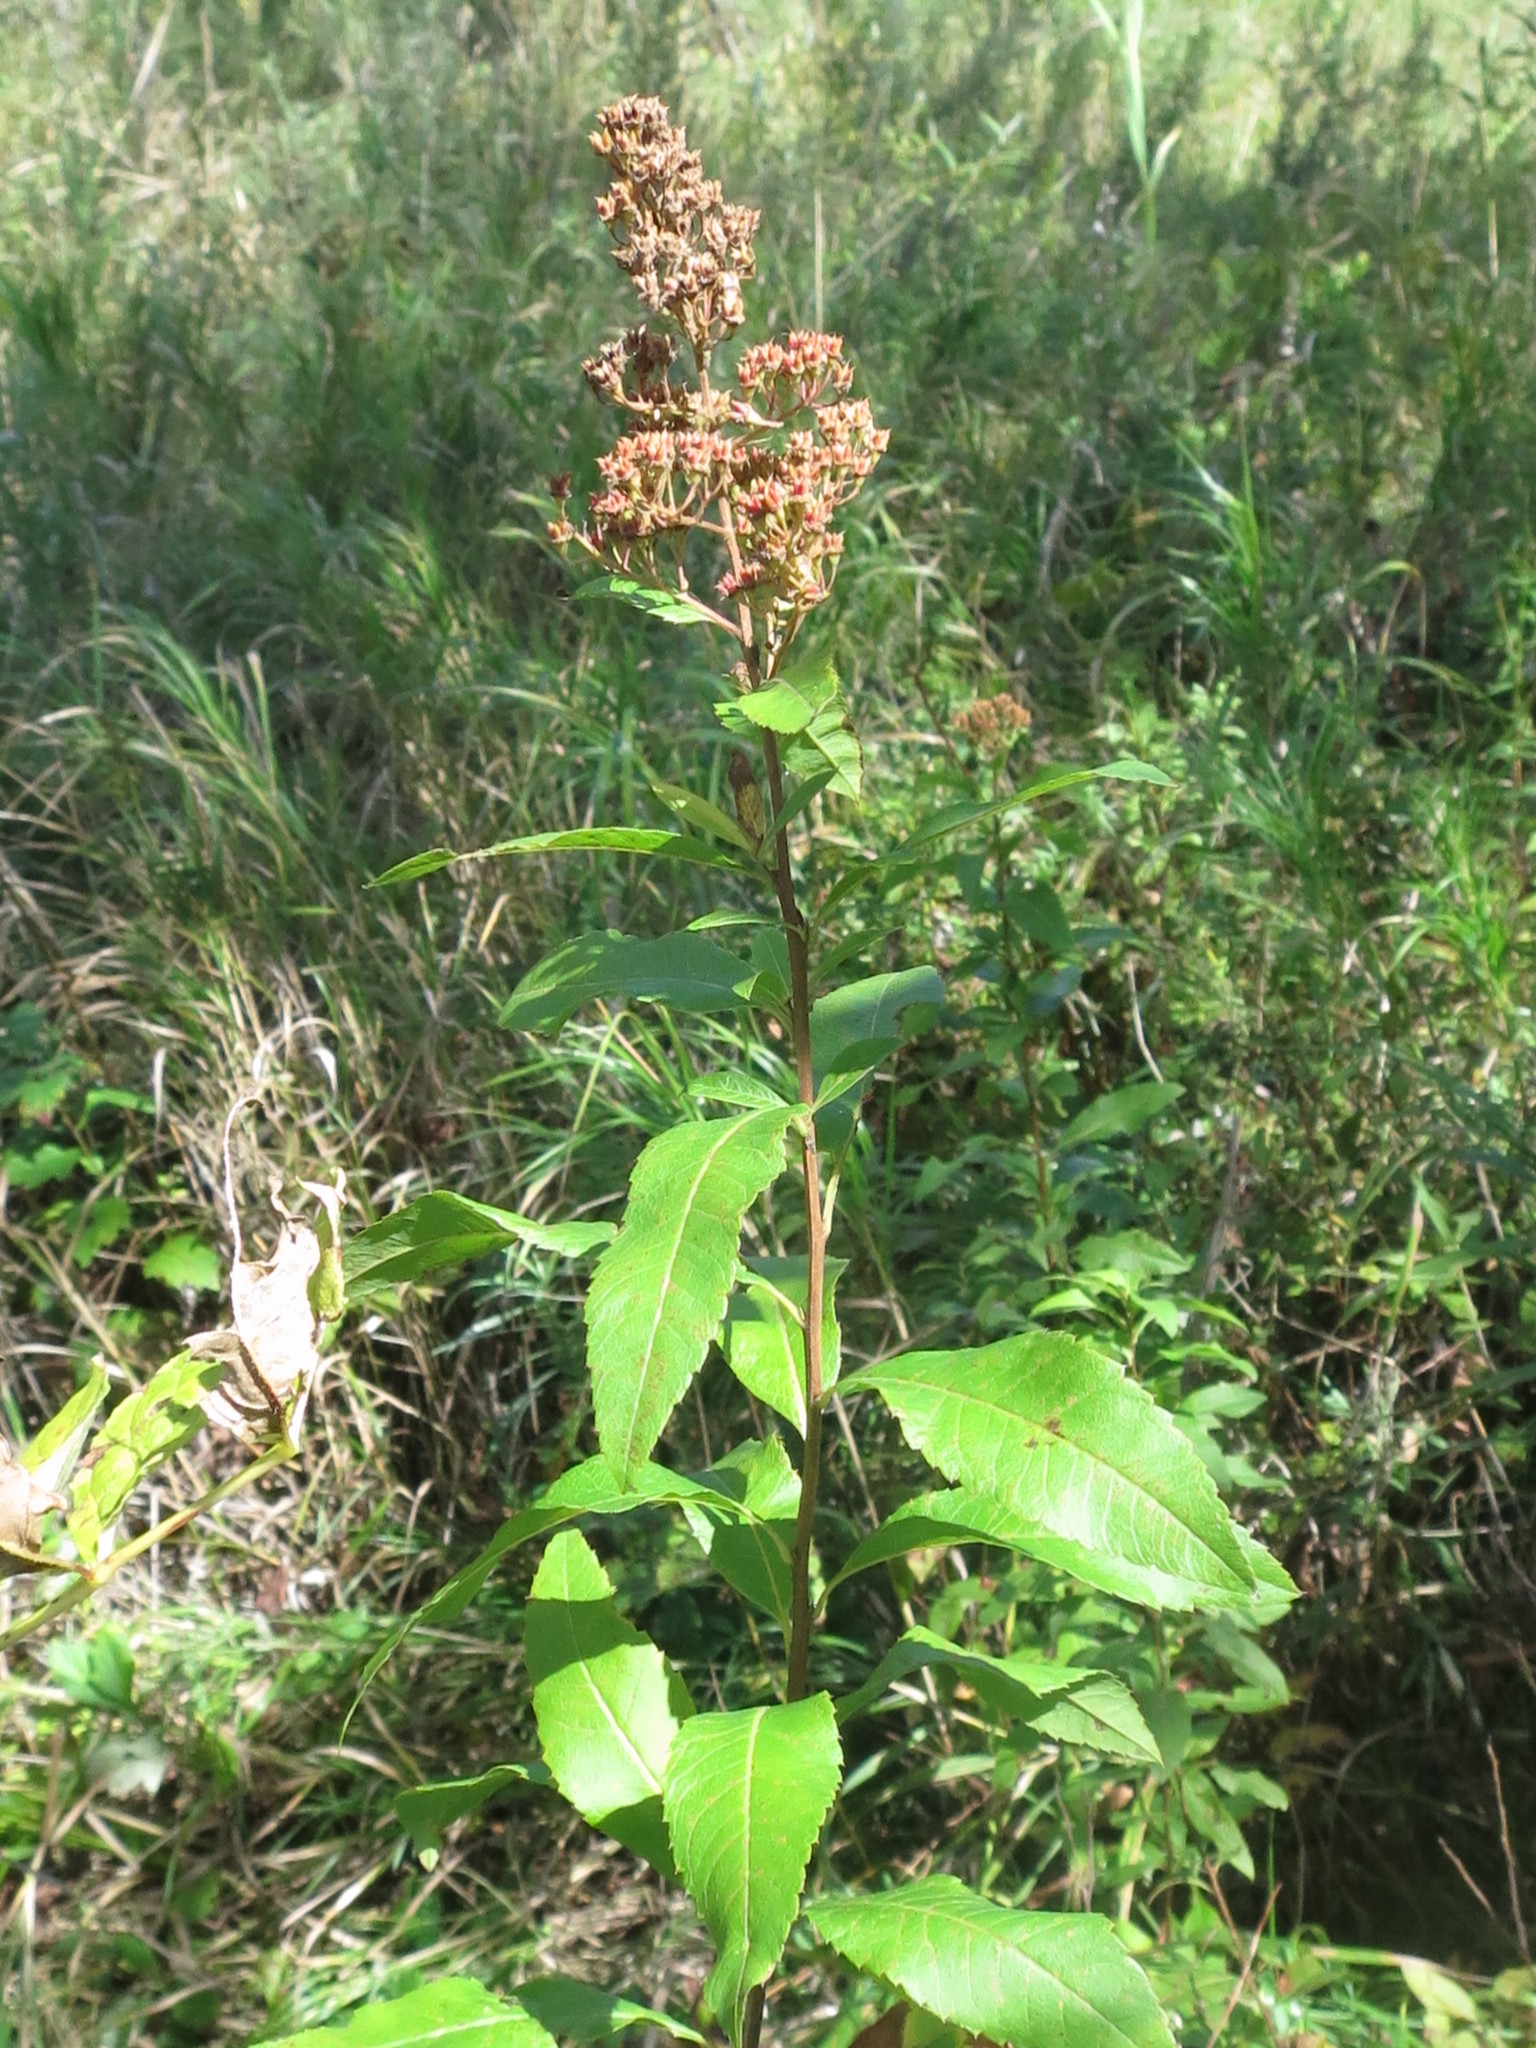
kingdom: Plantae
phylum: Tracheophyta
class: Magnoliopsida
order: Rosales
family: Rosaceae
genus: Spiraea
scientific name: Spiraea salicifolia
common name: Bridewort
